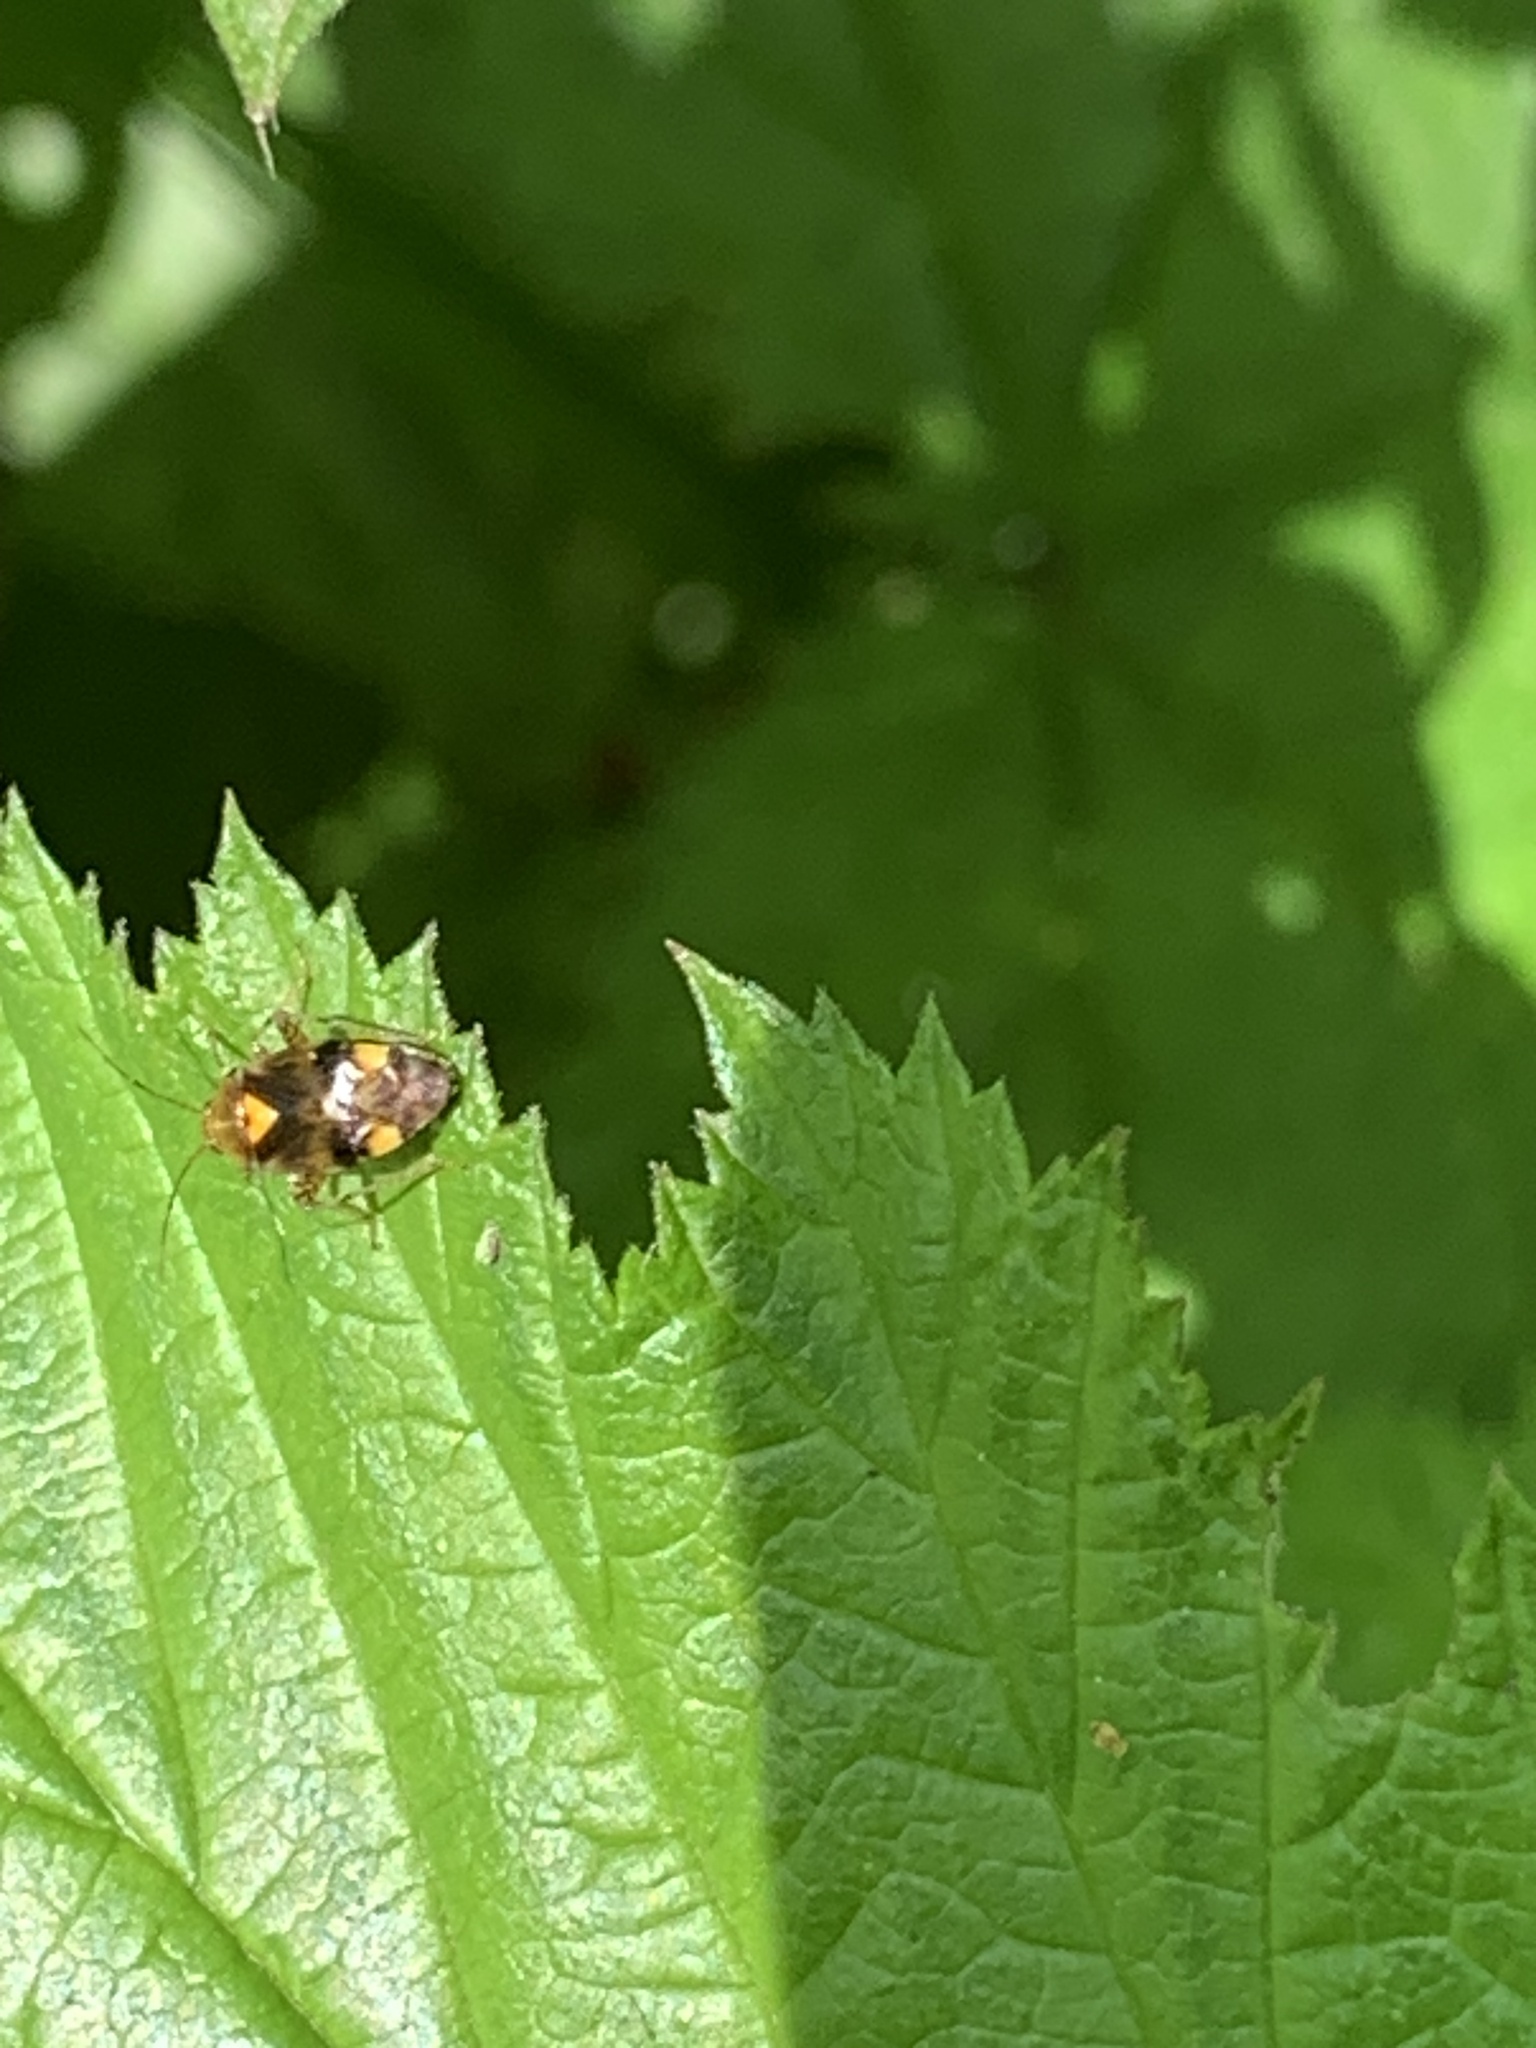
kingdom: Animalia
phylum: Arthropoda
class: Insecta
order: Hemiptera
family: Miridae
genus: Liocoris
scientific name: Liocoris tripustulatus
